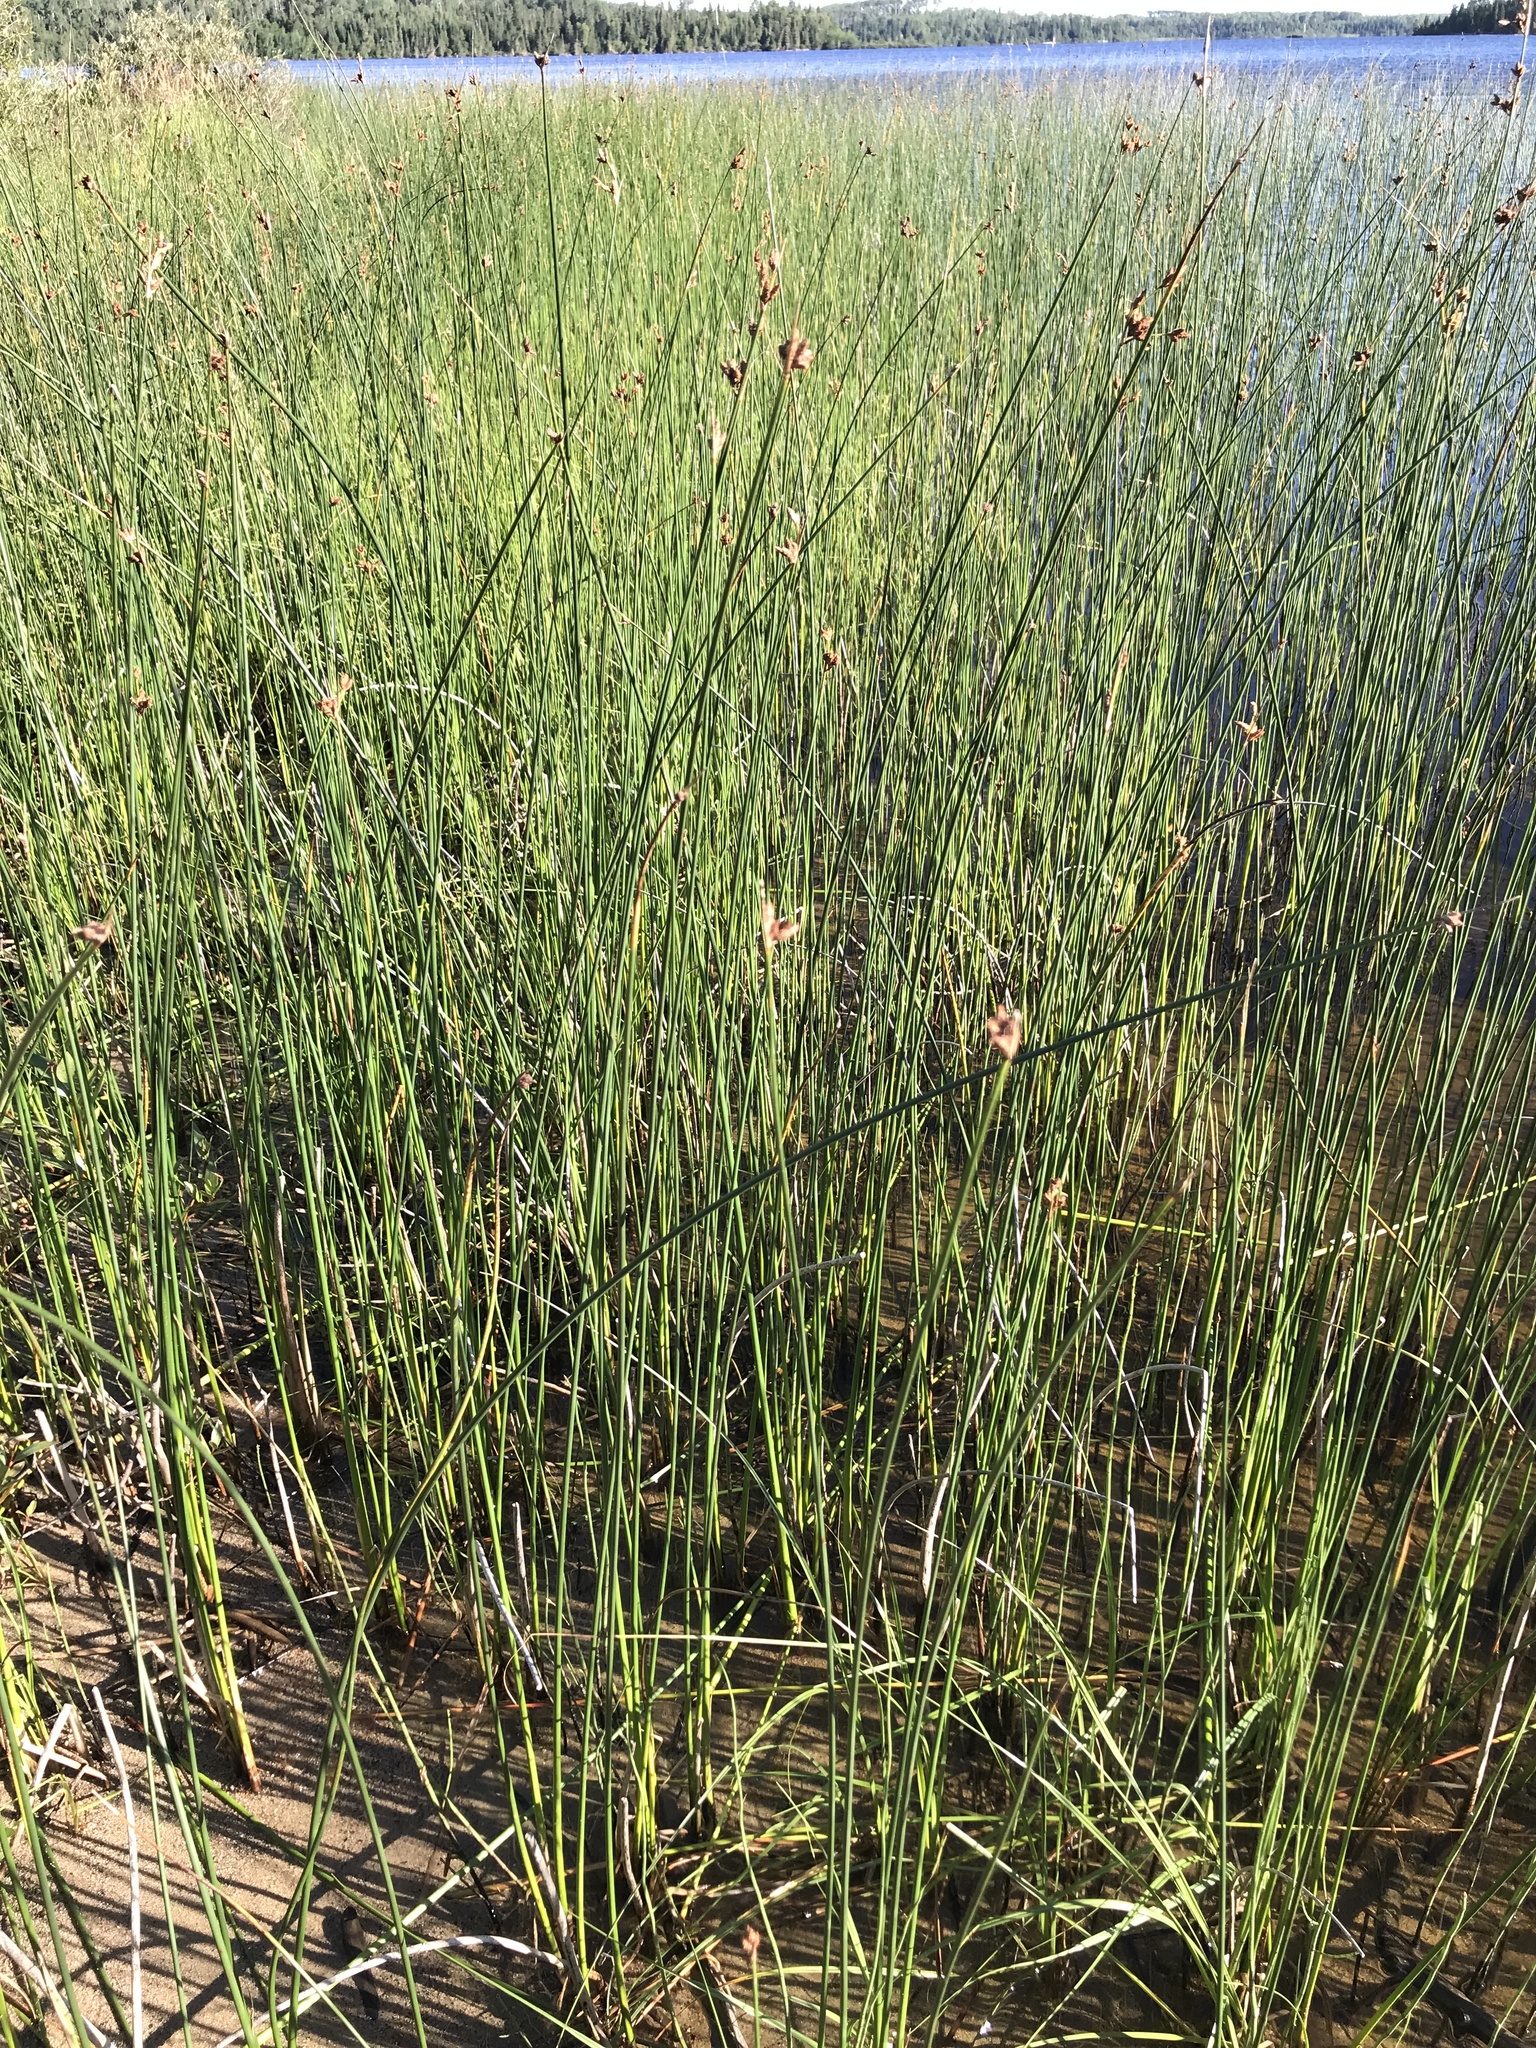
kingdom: Plantae
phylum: Tracheophyta
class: Liliopsida
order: Poales
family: Cyperaceae
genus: Schoenoplectus
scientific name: Schoenoplectus acutus
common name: Hardstem bulrush
